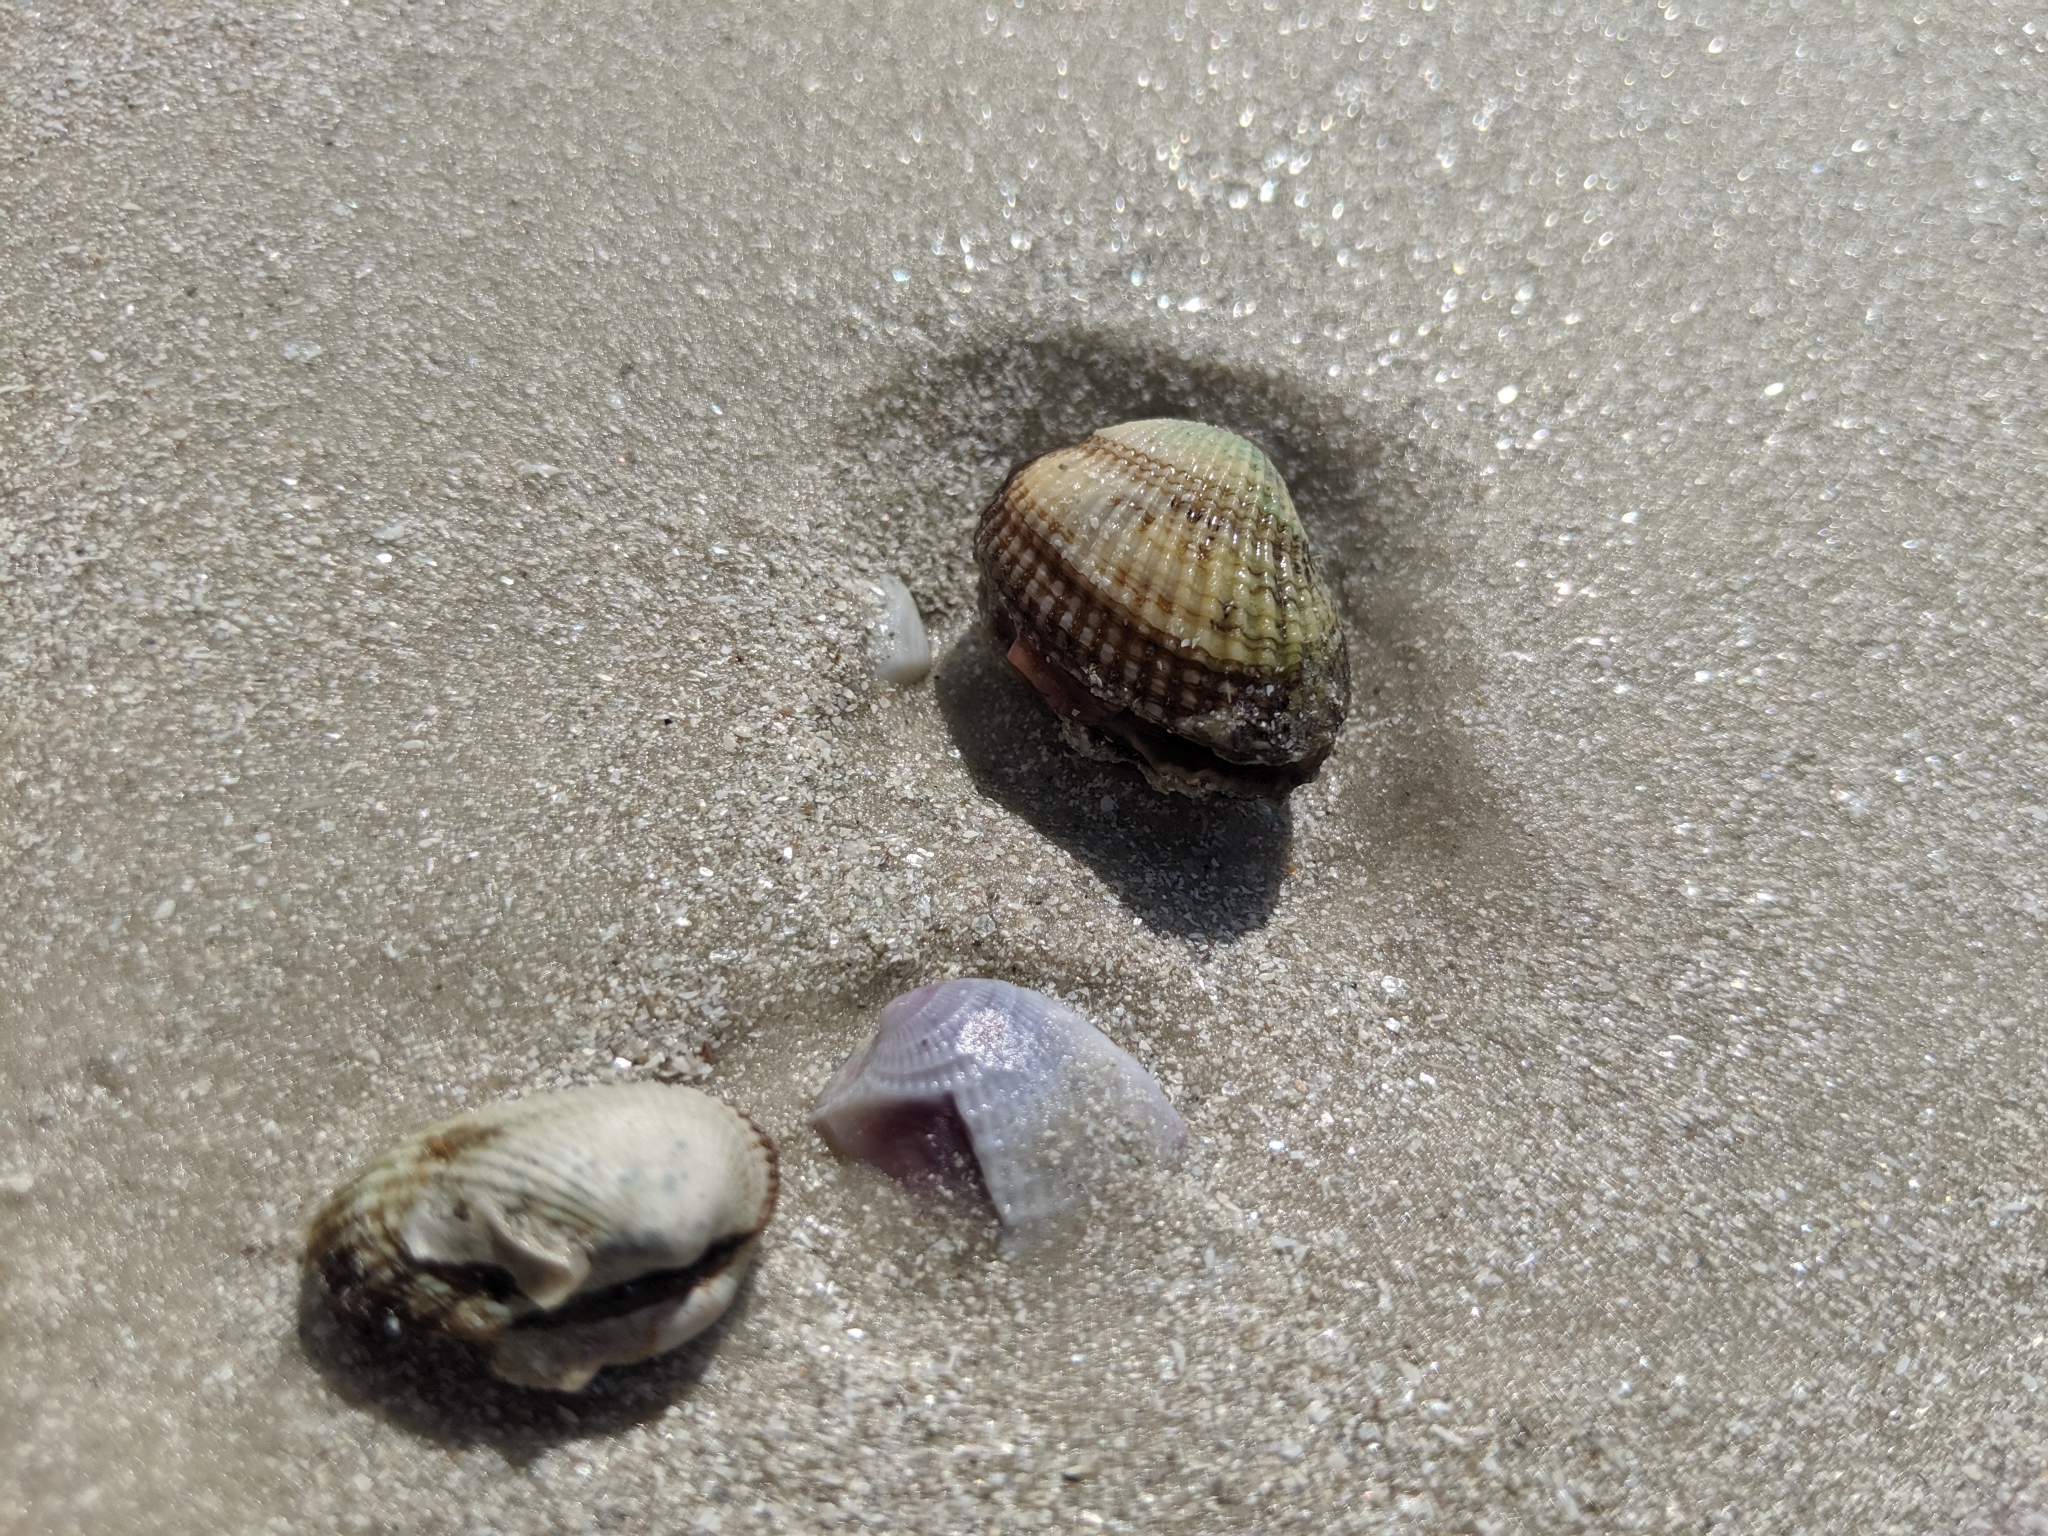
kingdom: Animalia
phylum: Mollusca
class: Bivalvia
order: Arcida
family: Arcidae
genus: Anadara
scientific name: Anadara transversa
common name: Transverse ark
